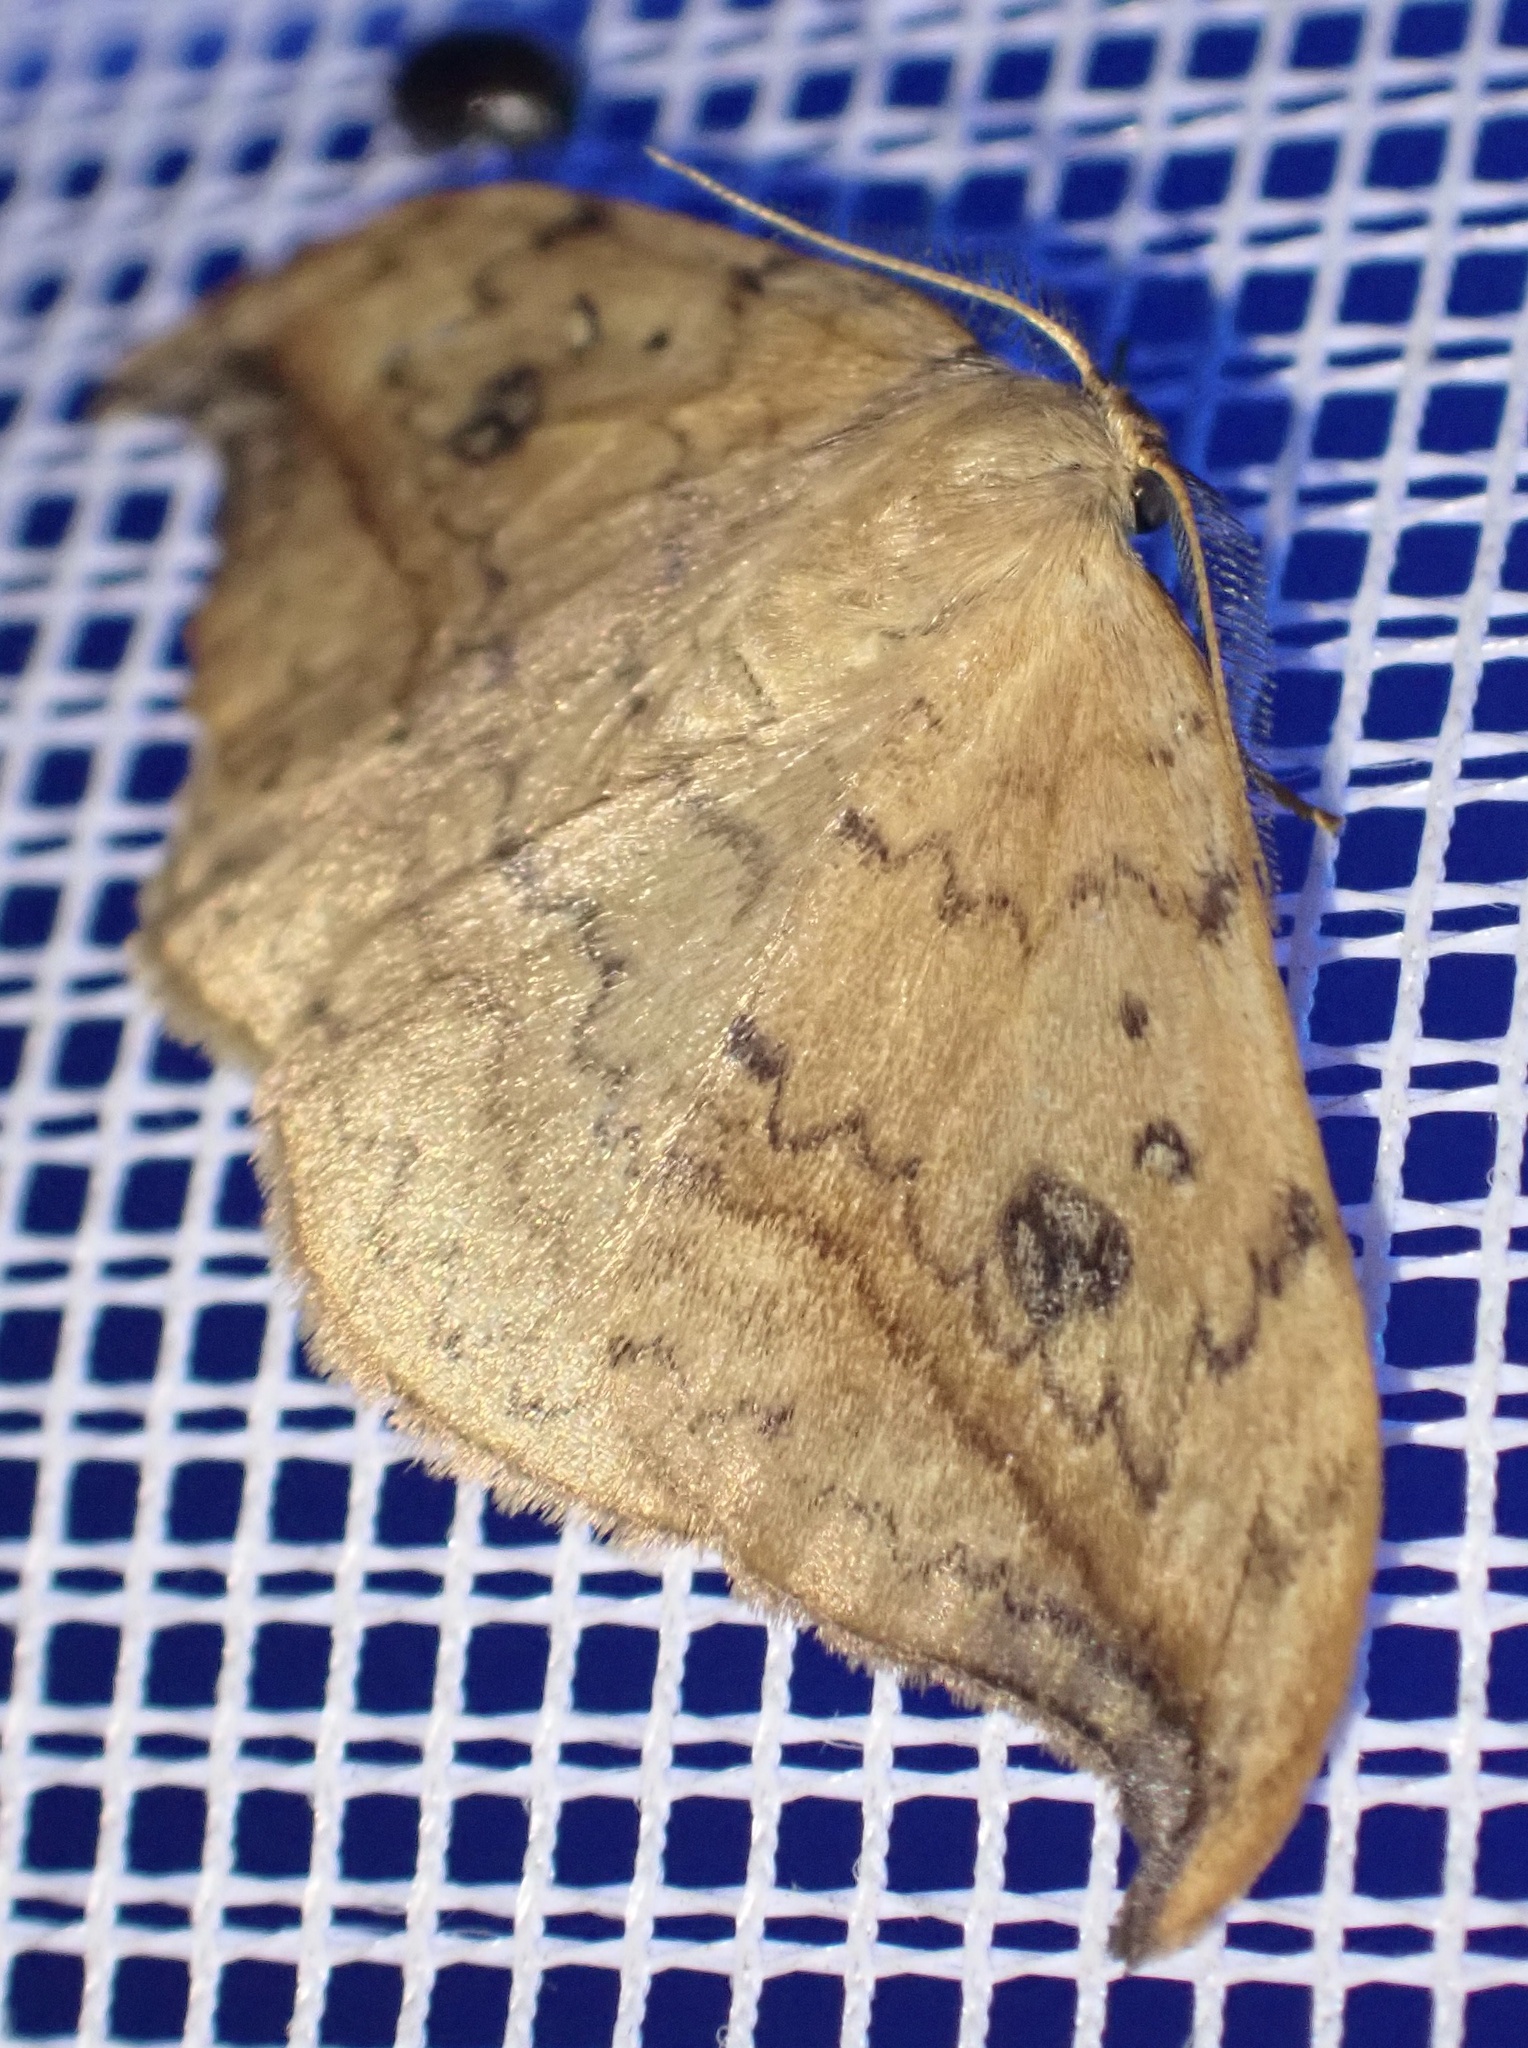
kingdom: Animalia
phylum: Arthropoda
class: Insecta
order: Lepidoptera
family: Drepanidae
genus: Drepana
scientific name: Drepana falcataria
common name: Pebble hook-tip
